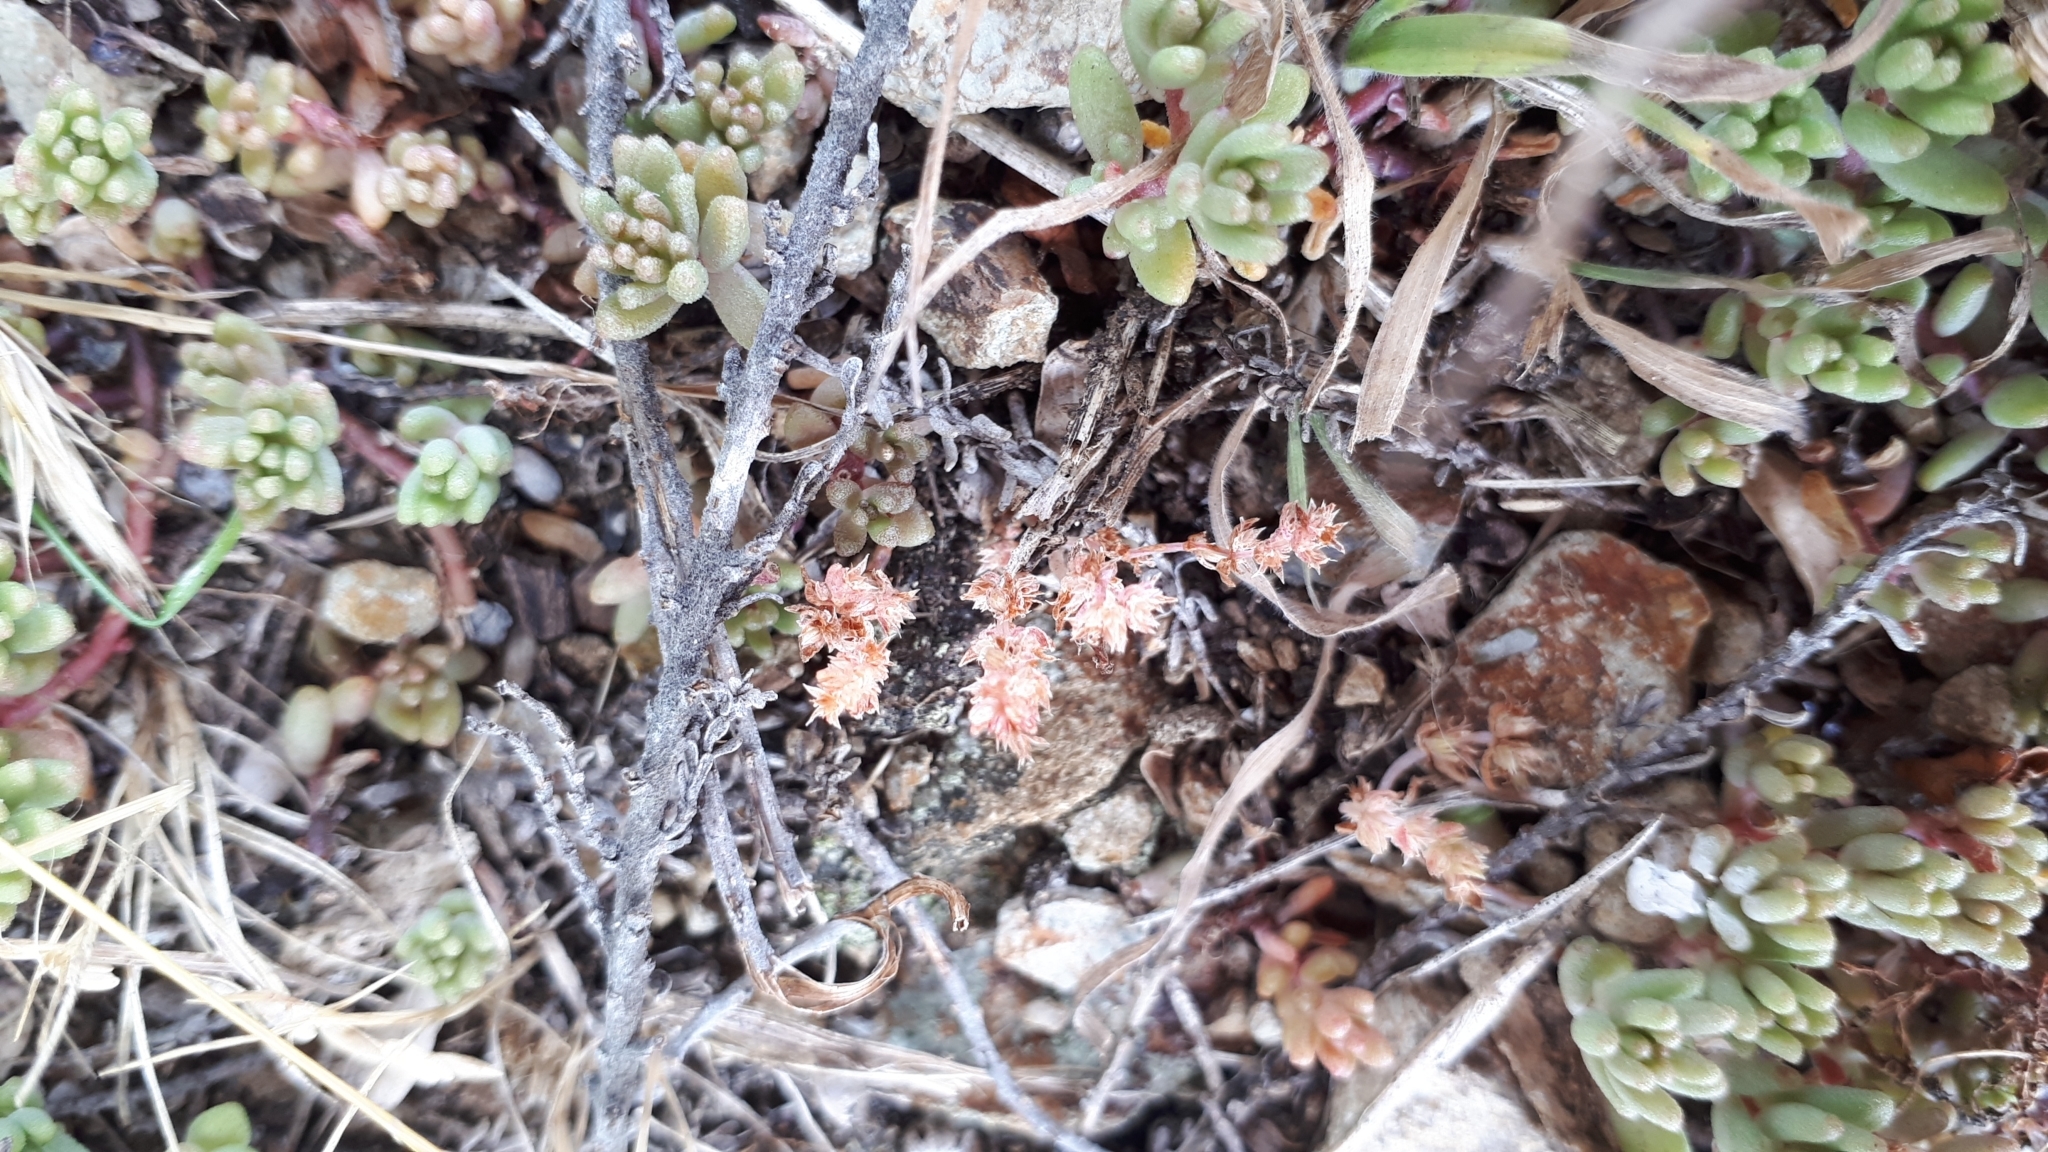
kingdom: Plantae
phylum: Tracheophyta
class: Magnoliopsida
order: Saxifragales
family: Crassulaceae
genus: Sedum
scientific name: Sedum album
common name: White stonecrop
